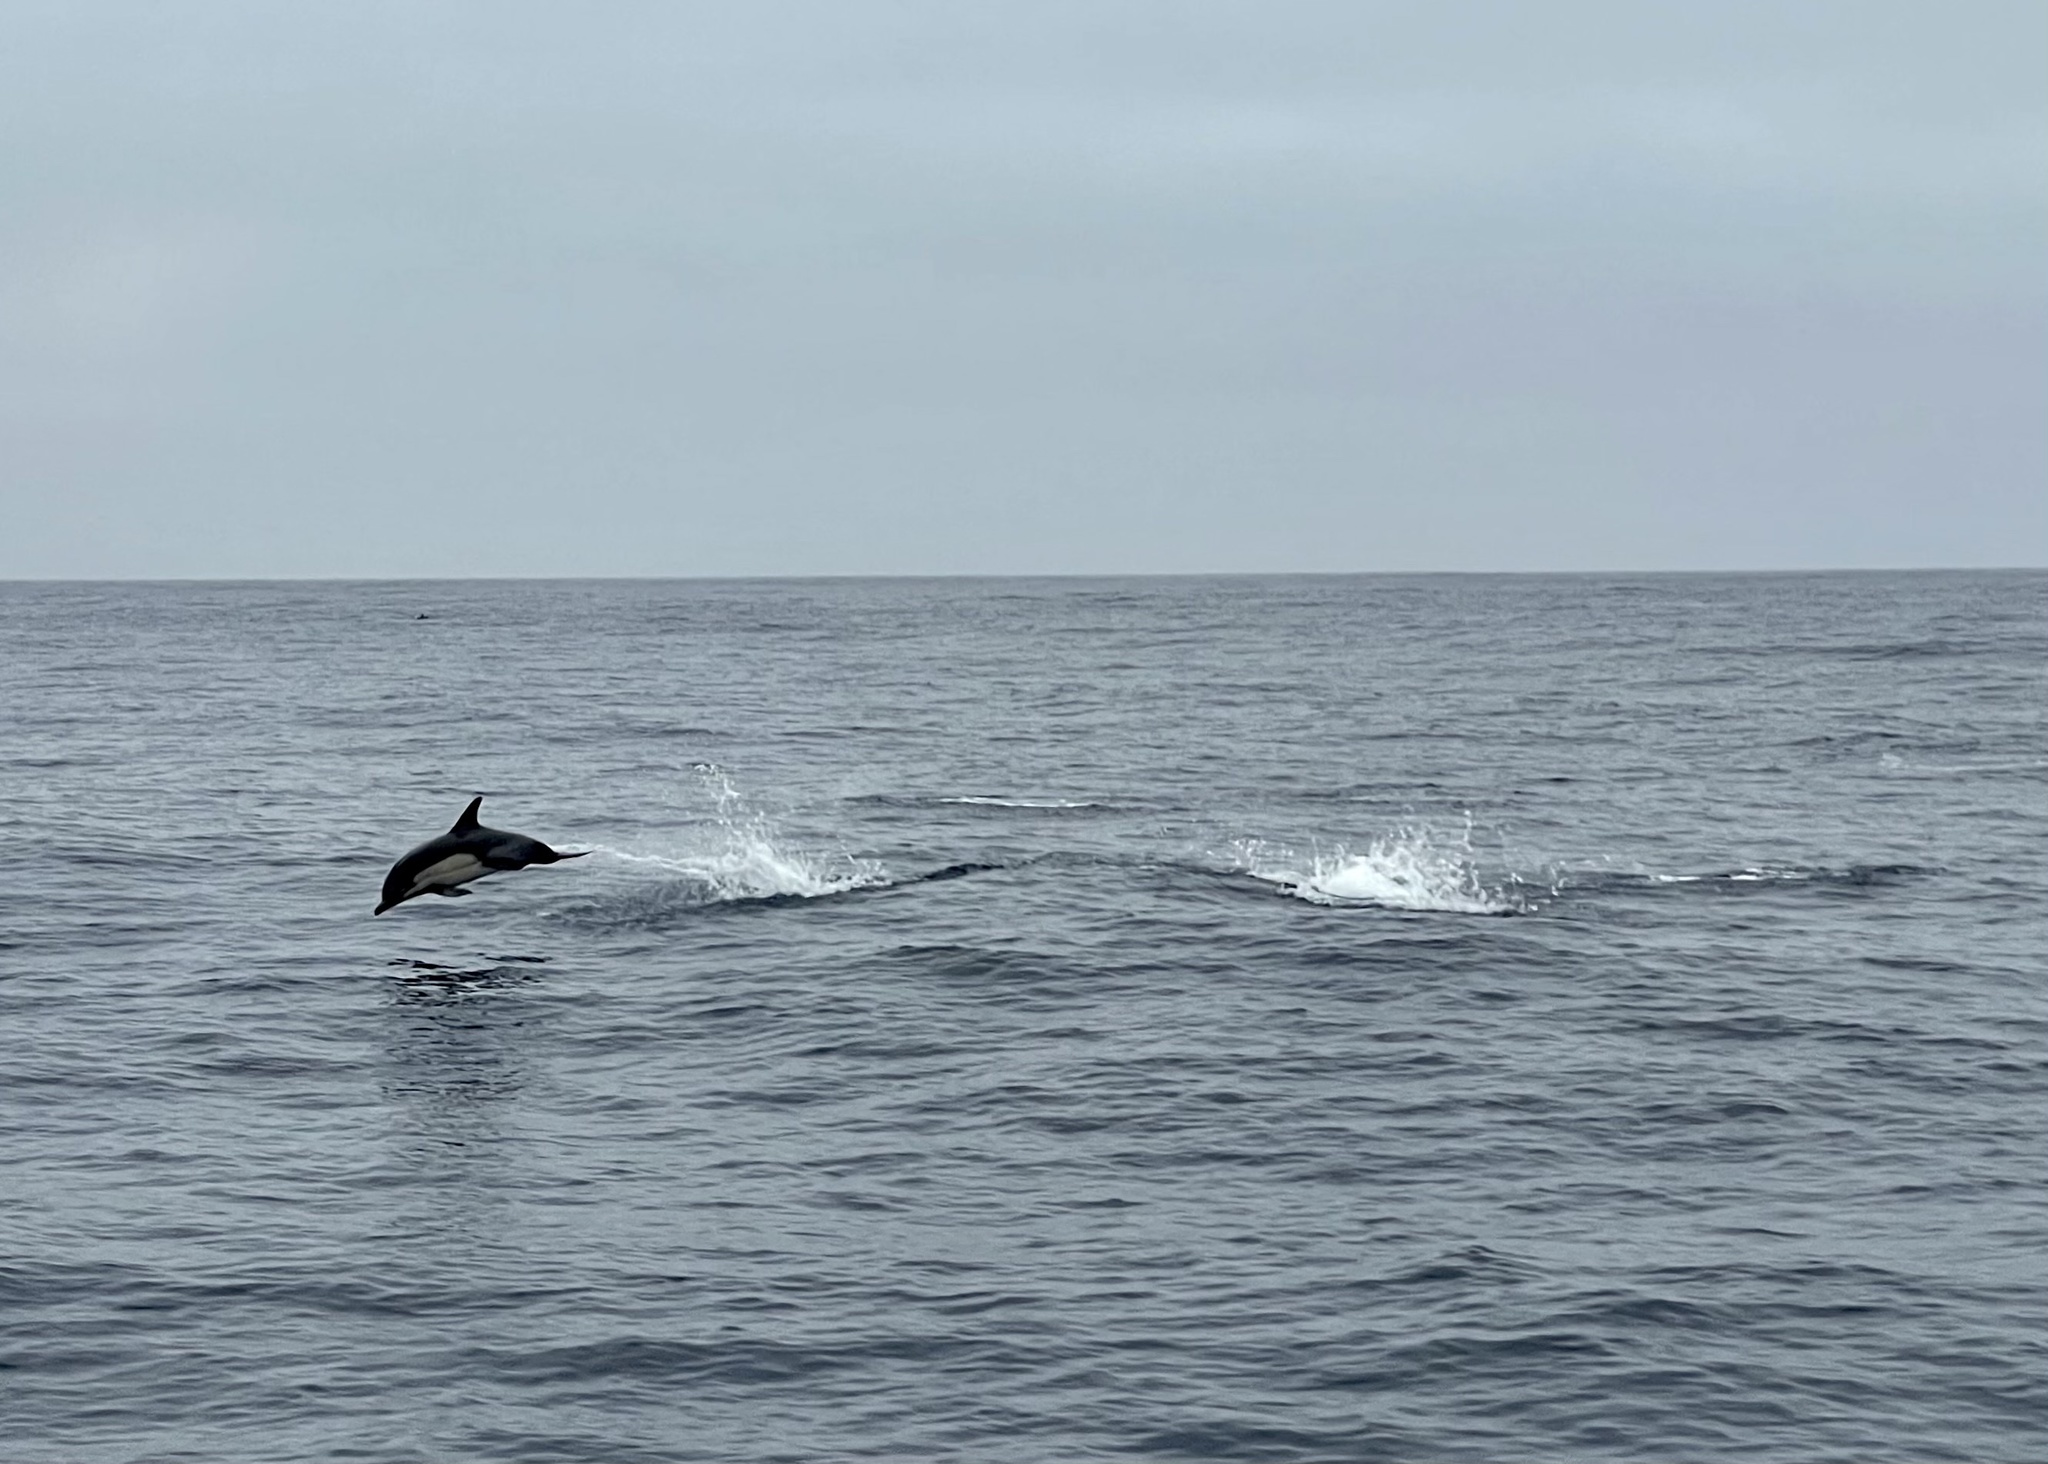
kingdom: Animalia
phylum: Chordata
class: Mammalia
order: Cetacea
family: Delphinidae
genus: Delphinus
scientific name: Delphinus delphis
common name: Common dolphin
